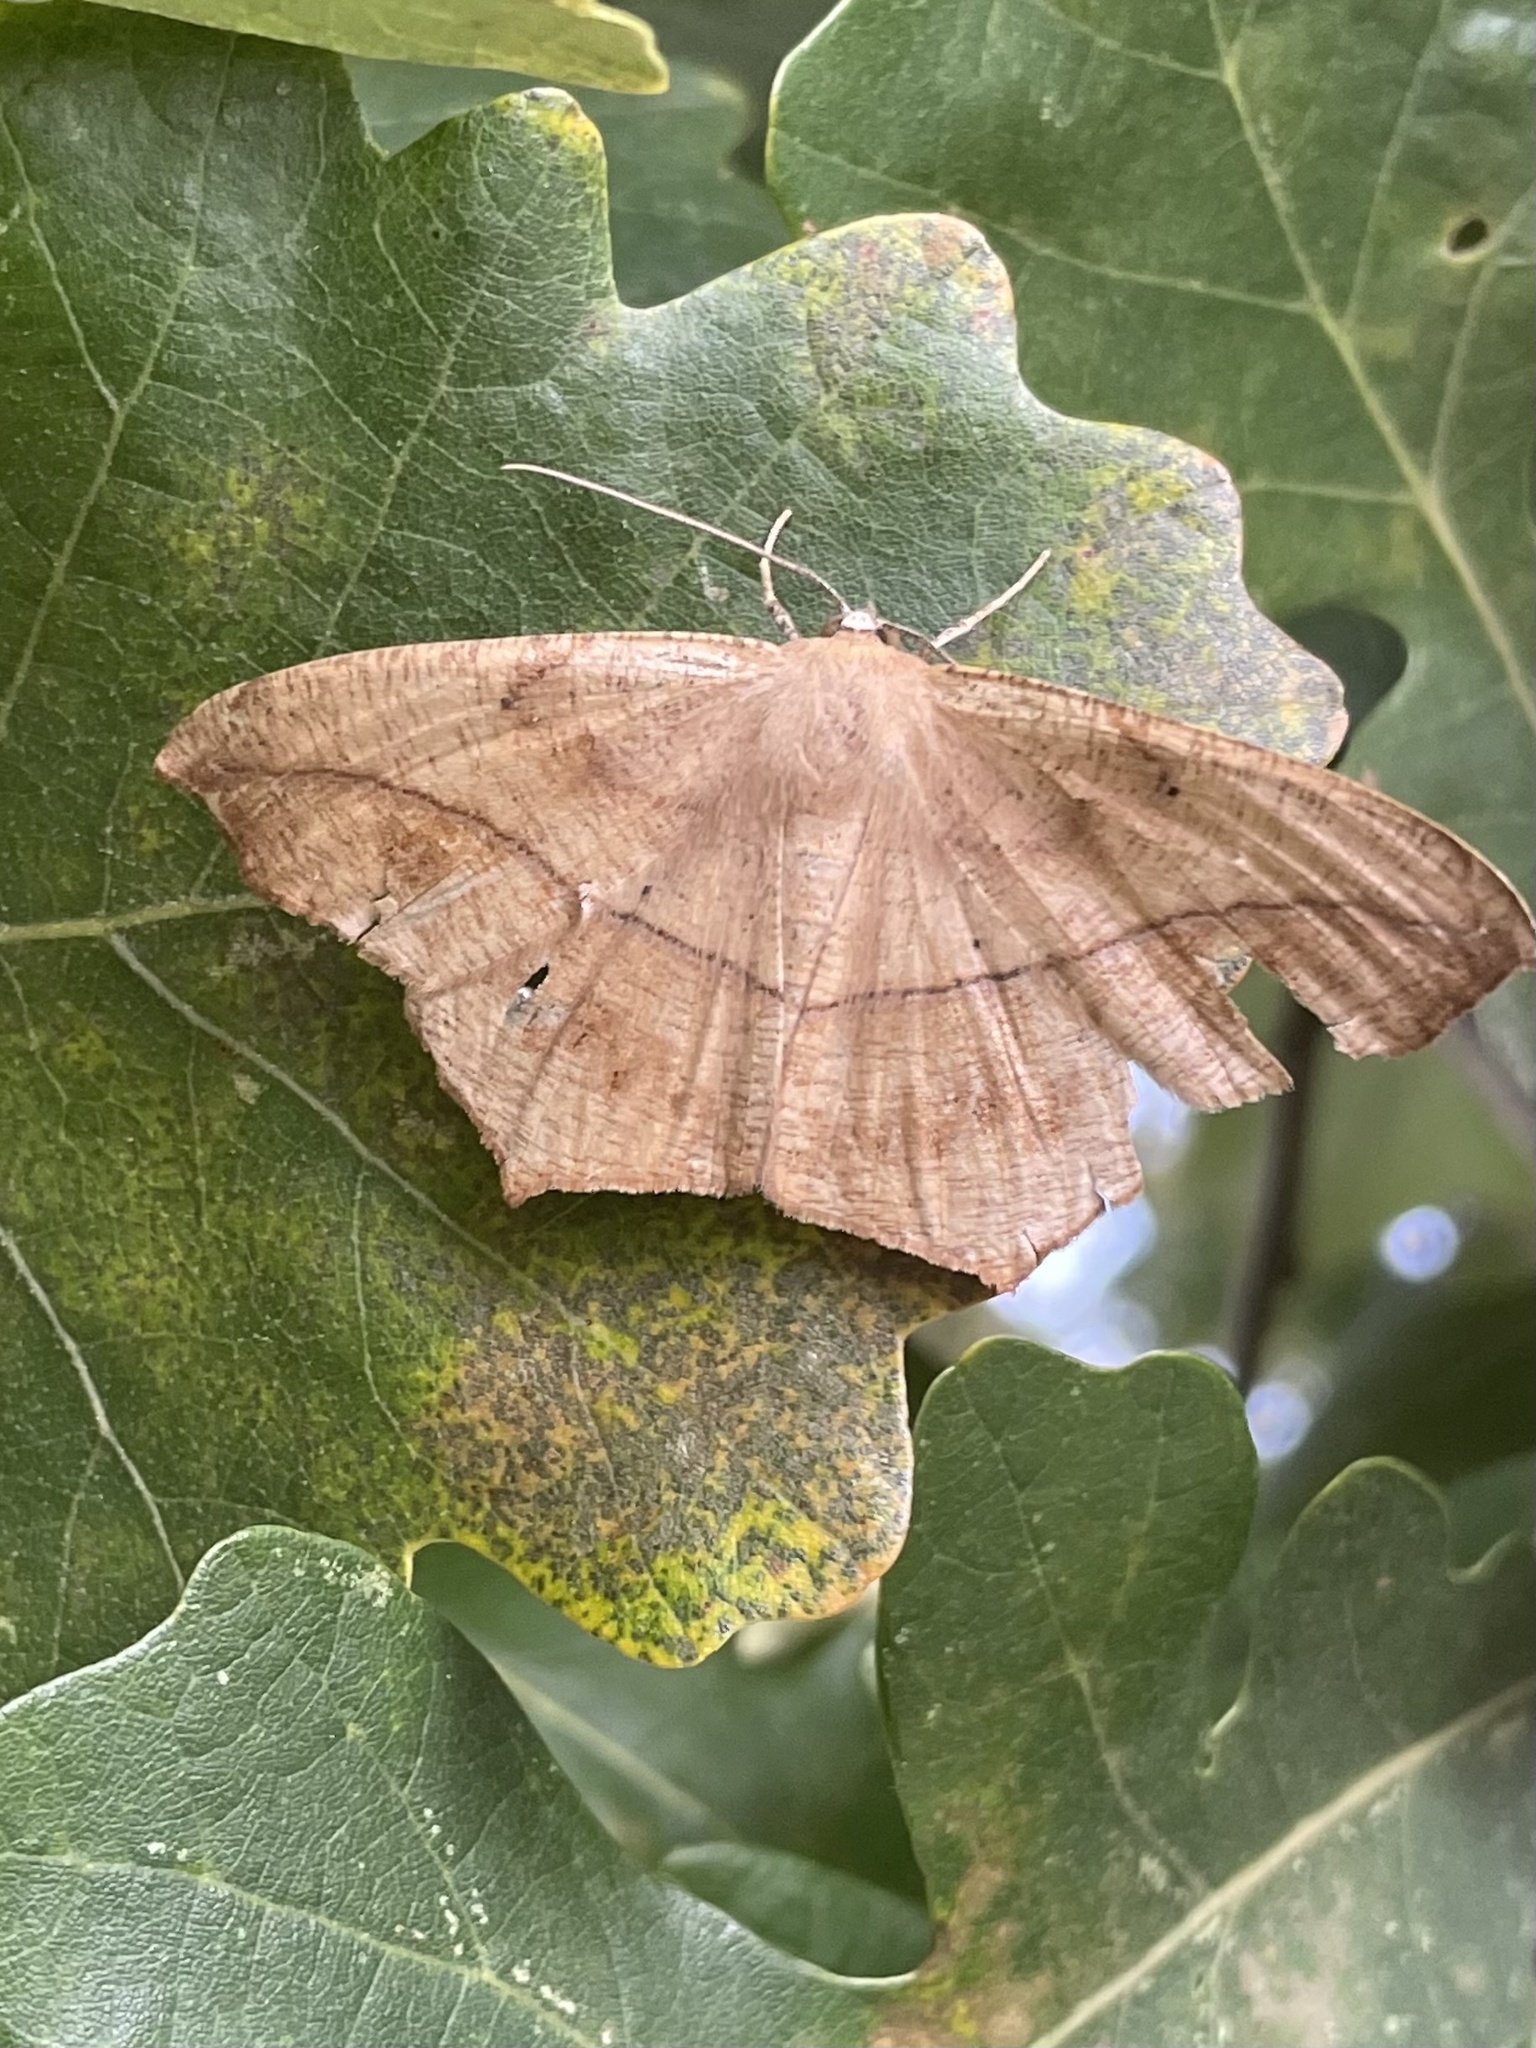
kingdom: Animalia
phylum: Arthropoda
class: Insecta
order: Lepidoptera
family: Geometridae
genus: Prochoerodes
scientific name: Prochoerodes lineola
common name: Large maple spanworm
